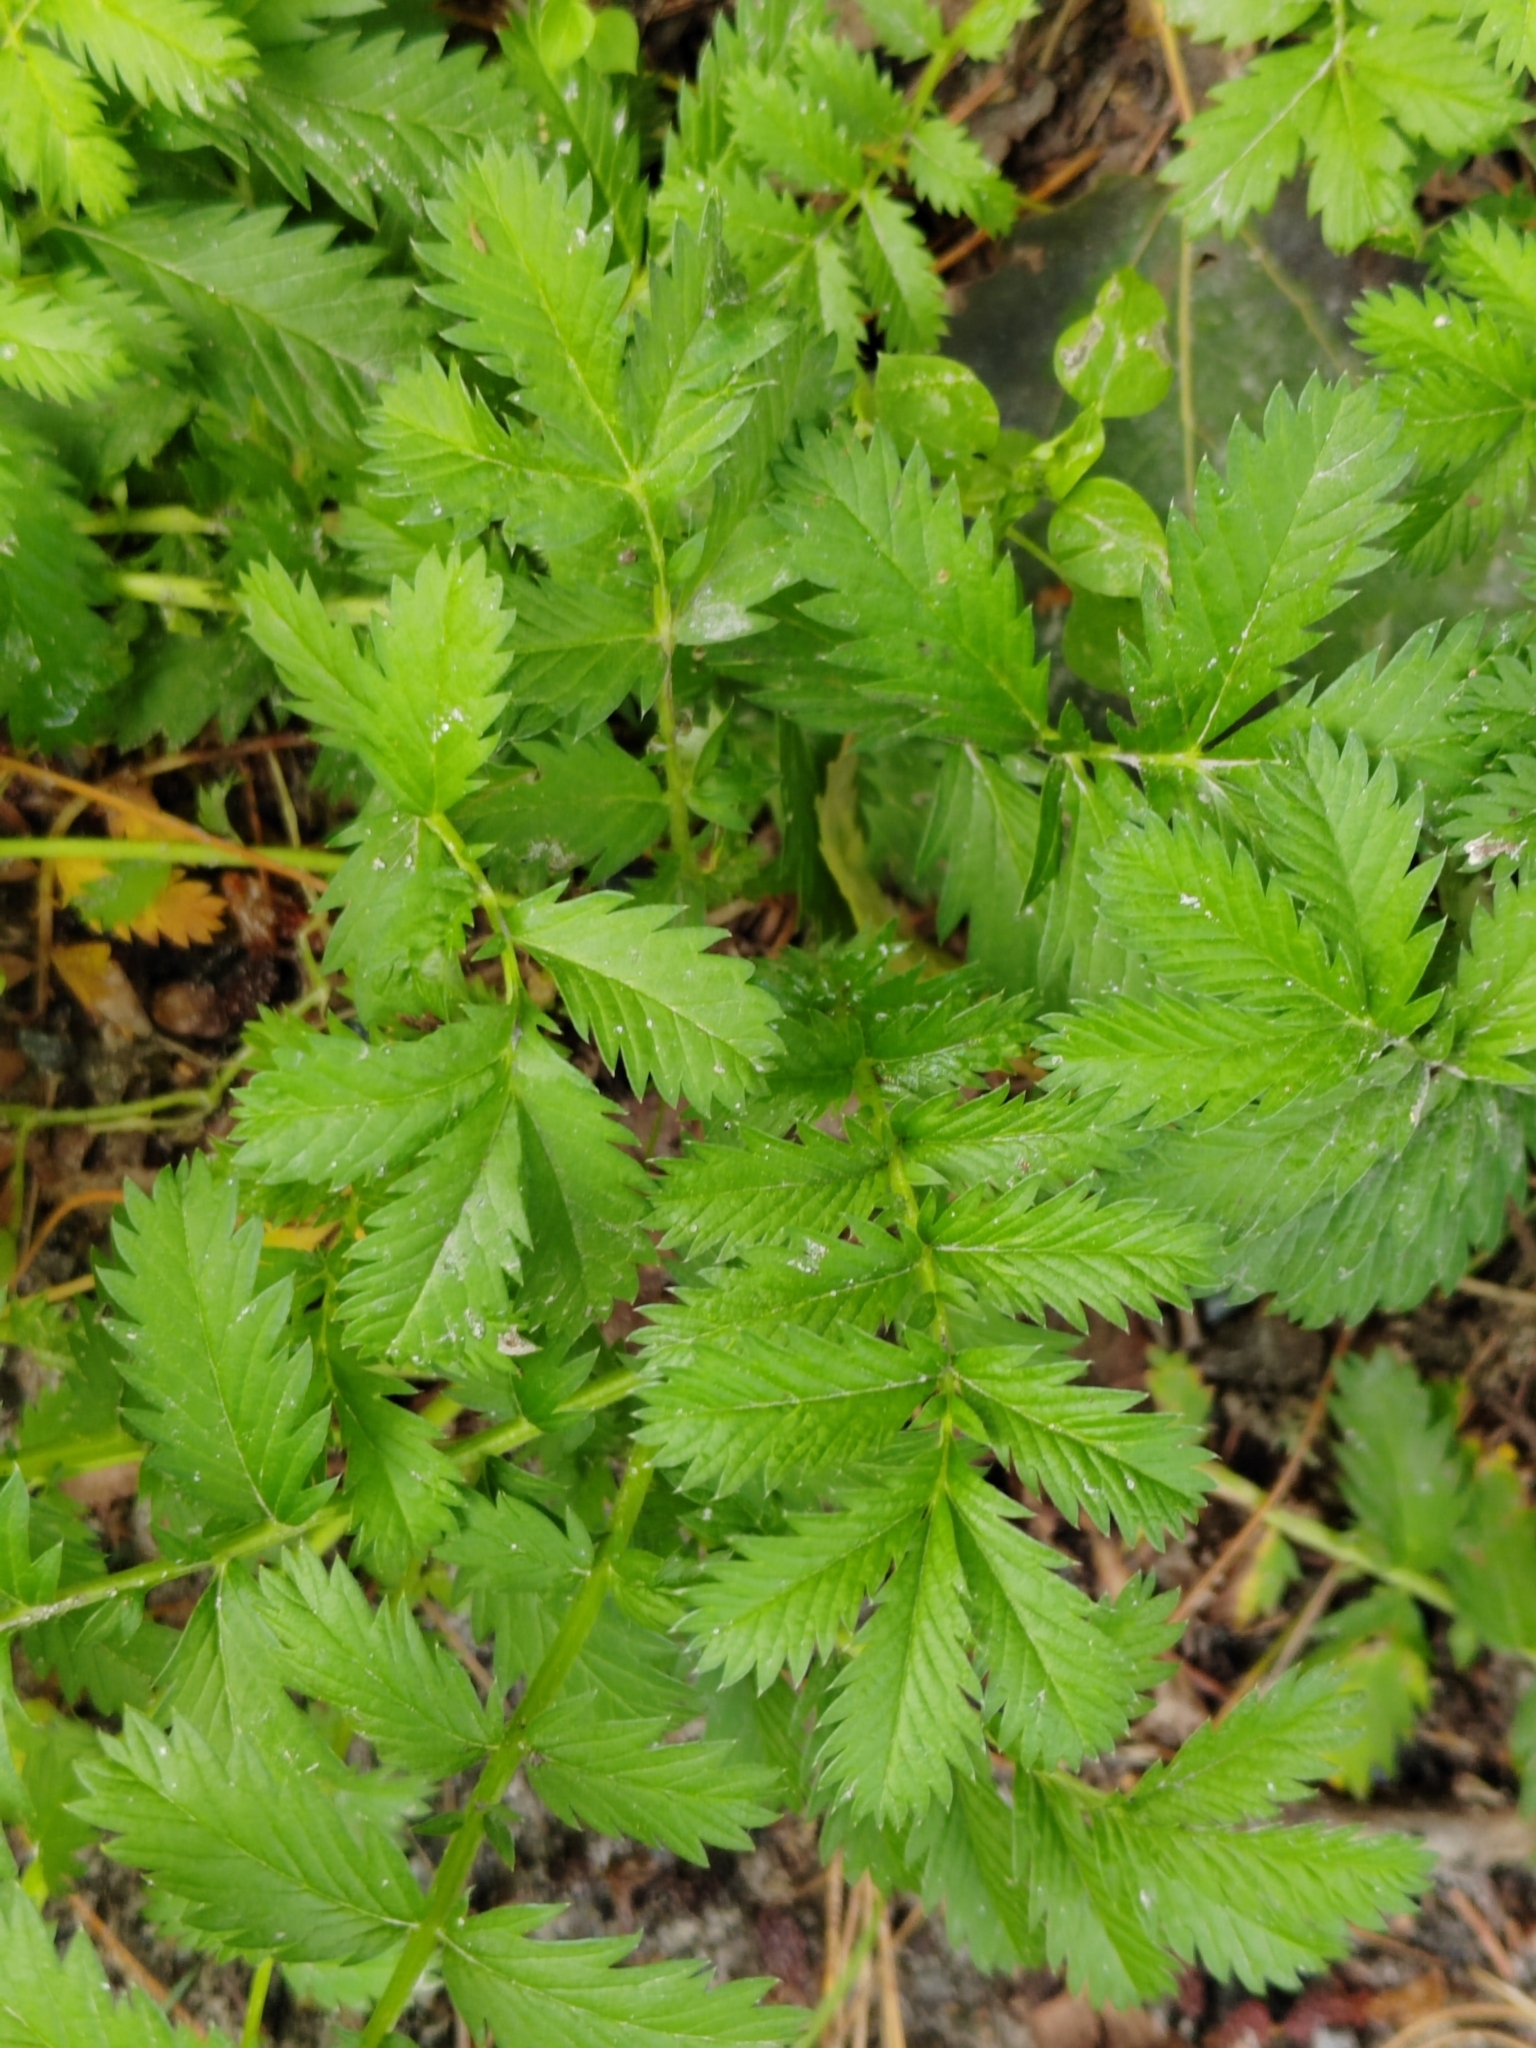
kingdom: Plantae
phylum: Tracheophyta
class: Magnoliopsida
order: Rosales
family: Rosaceae
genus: Argentina
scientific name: Argentina anserina
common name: Common silverweed
